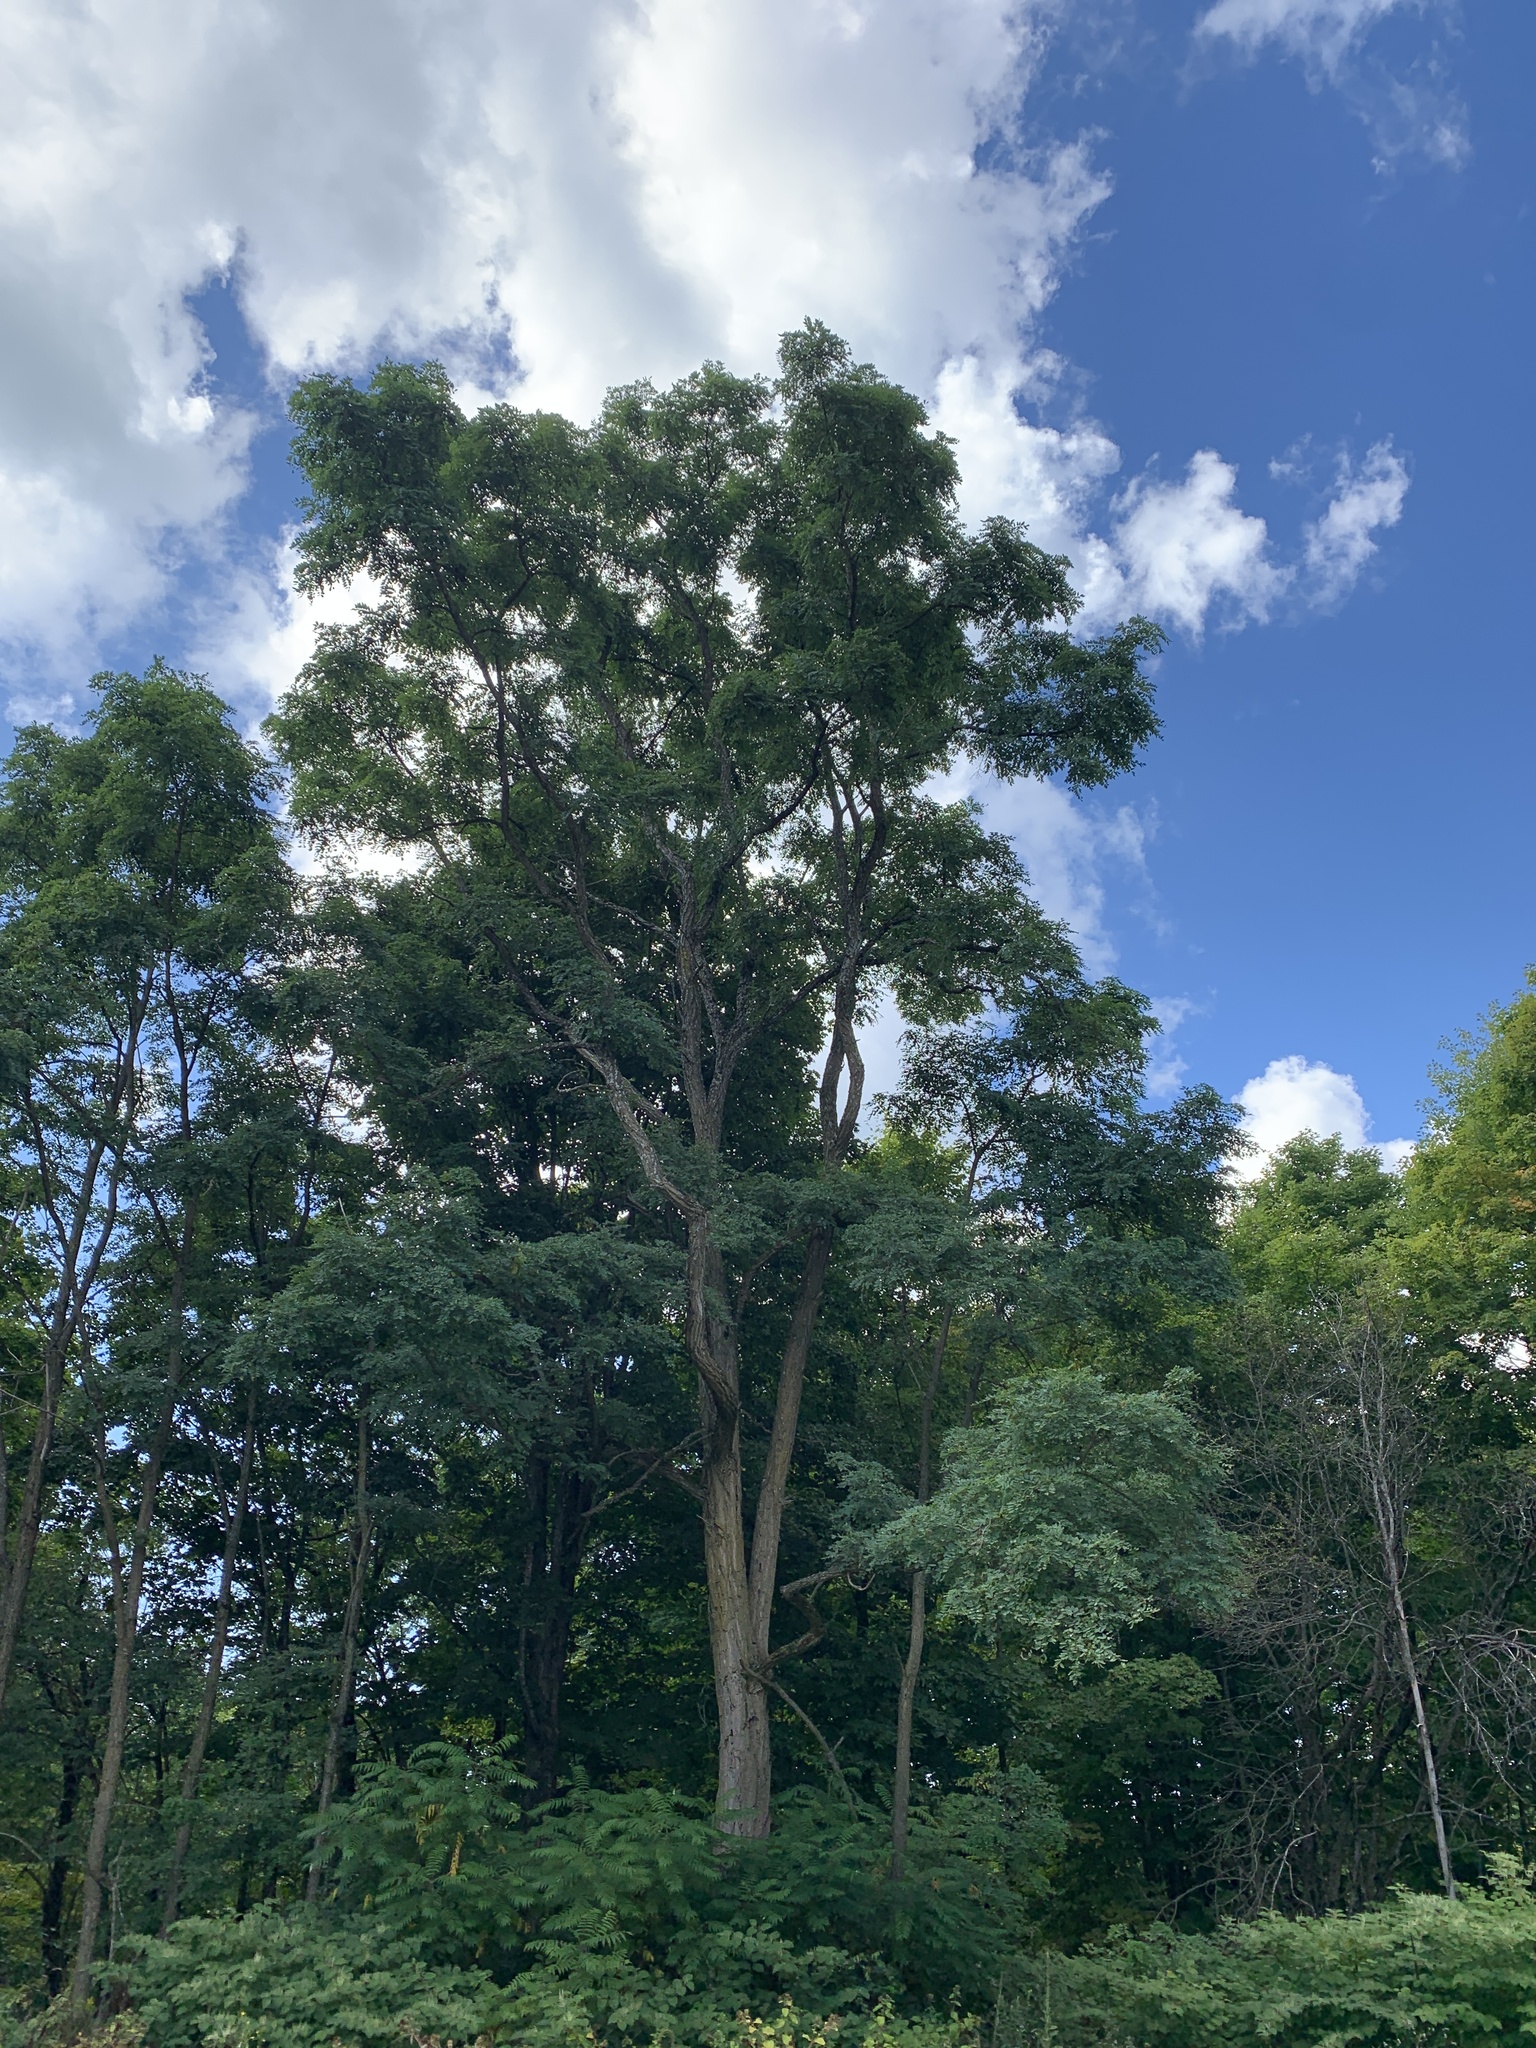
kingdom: Plantae
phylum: Tracheophyta
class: Magnoliopsida
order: Fabales
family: Fabaceae
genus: Robinia
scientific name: Robinia pseudoacacia
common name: Black locust
